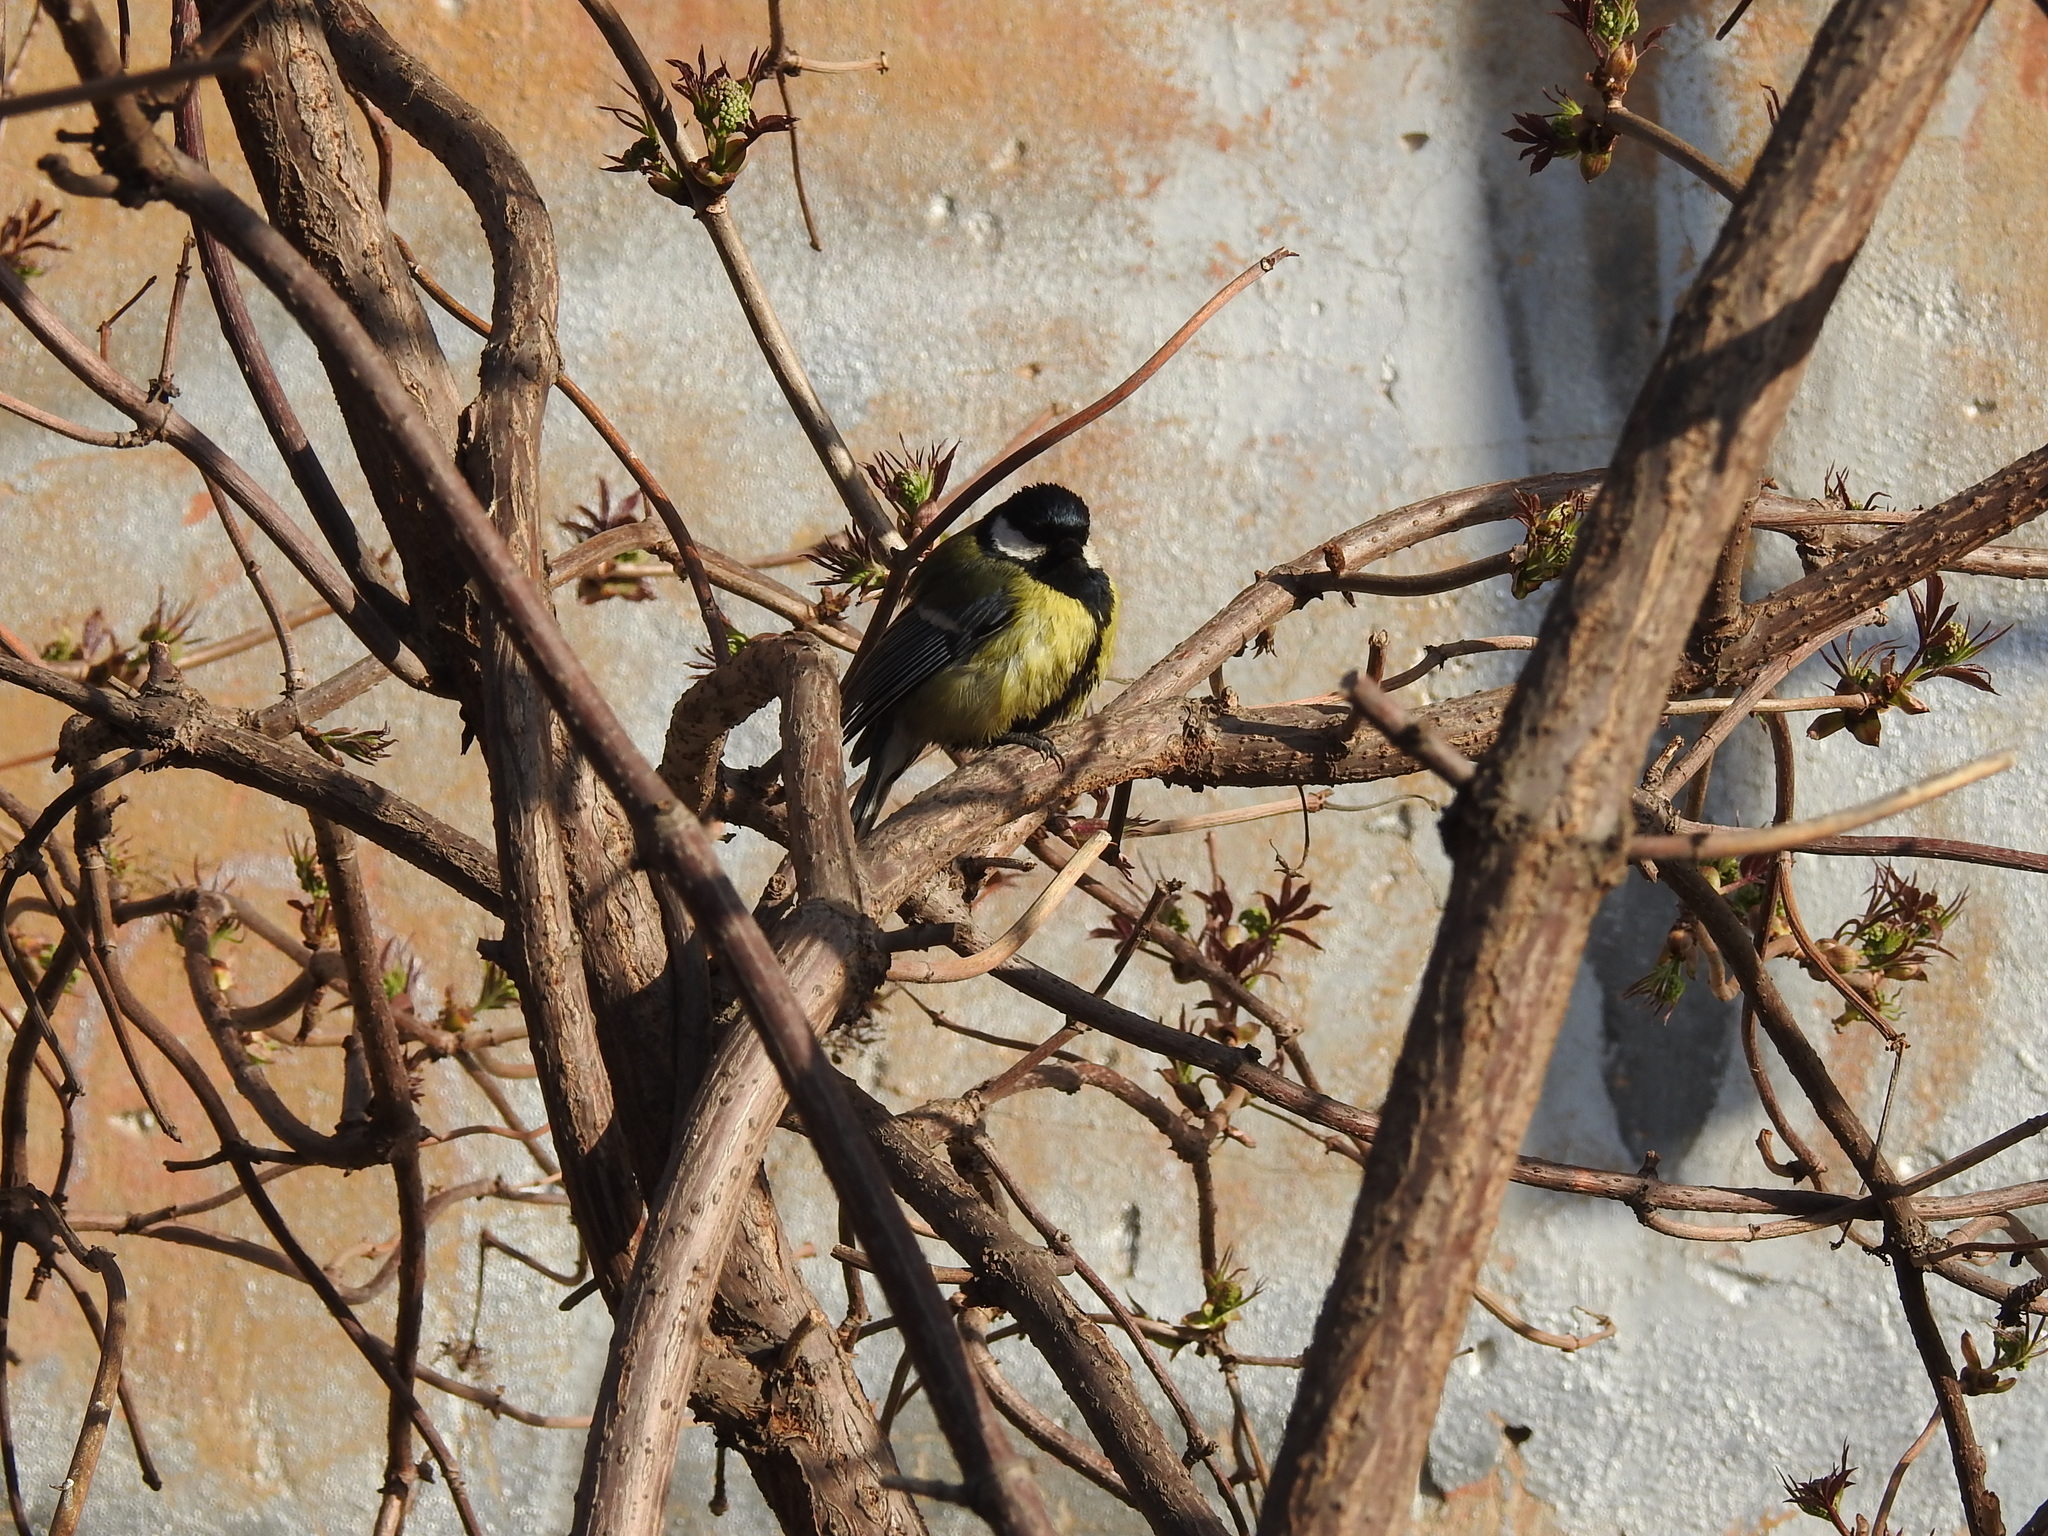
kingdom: Animalia
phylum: Chordata
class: Aves
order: Passeriformes
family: Paridae
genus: Parus
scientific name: Parus major
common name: Great tit
